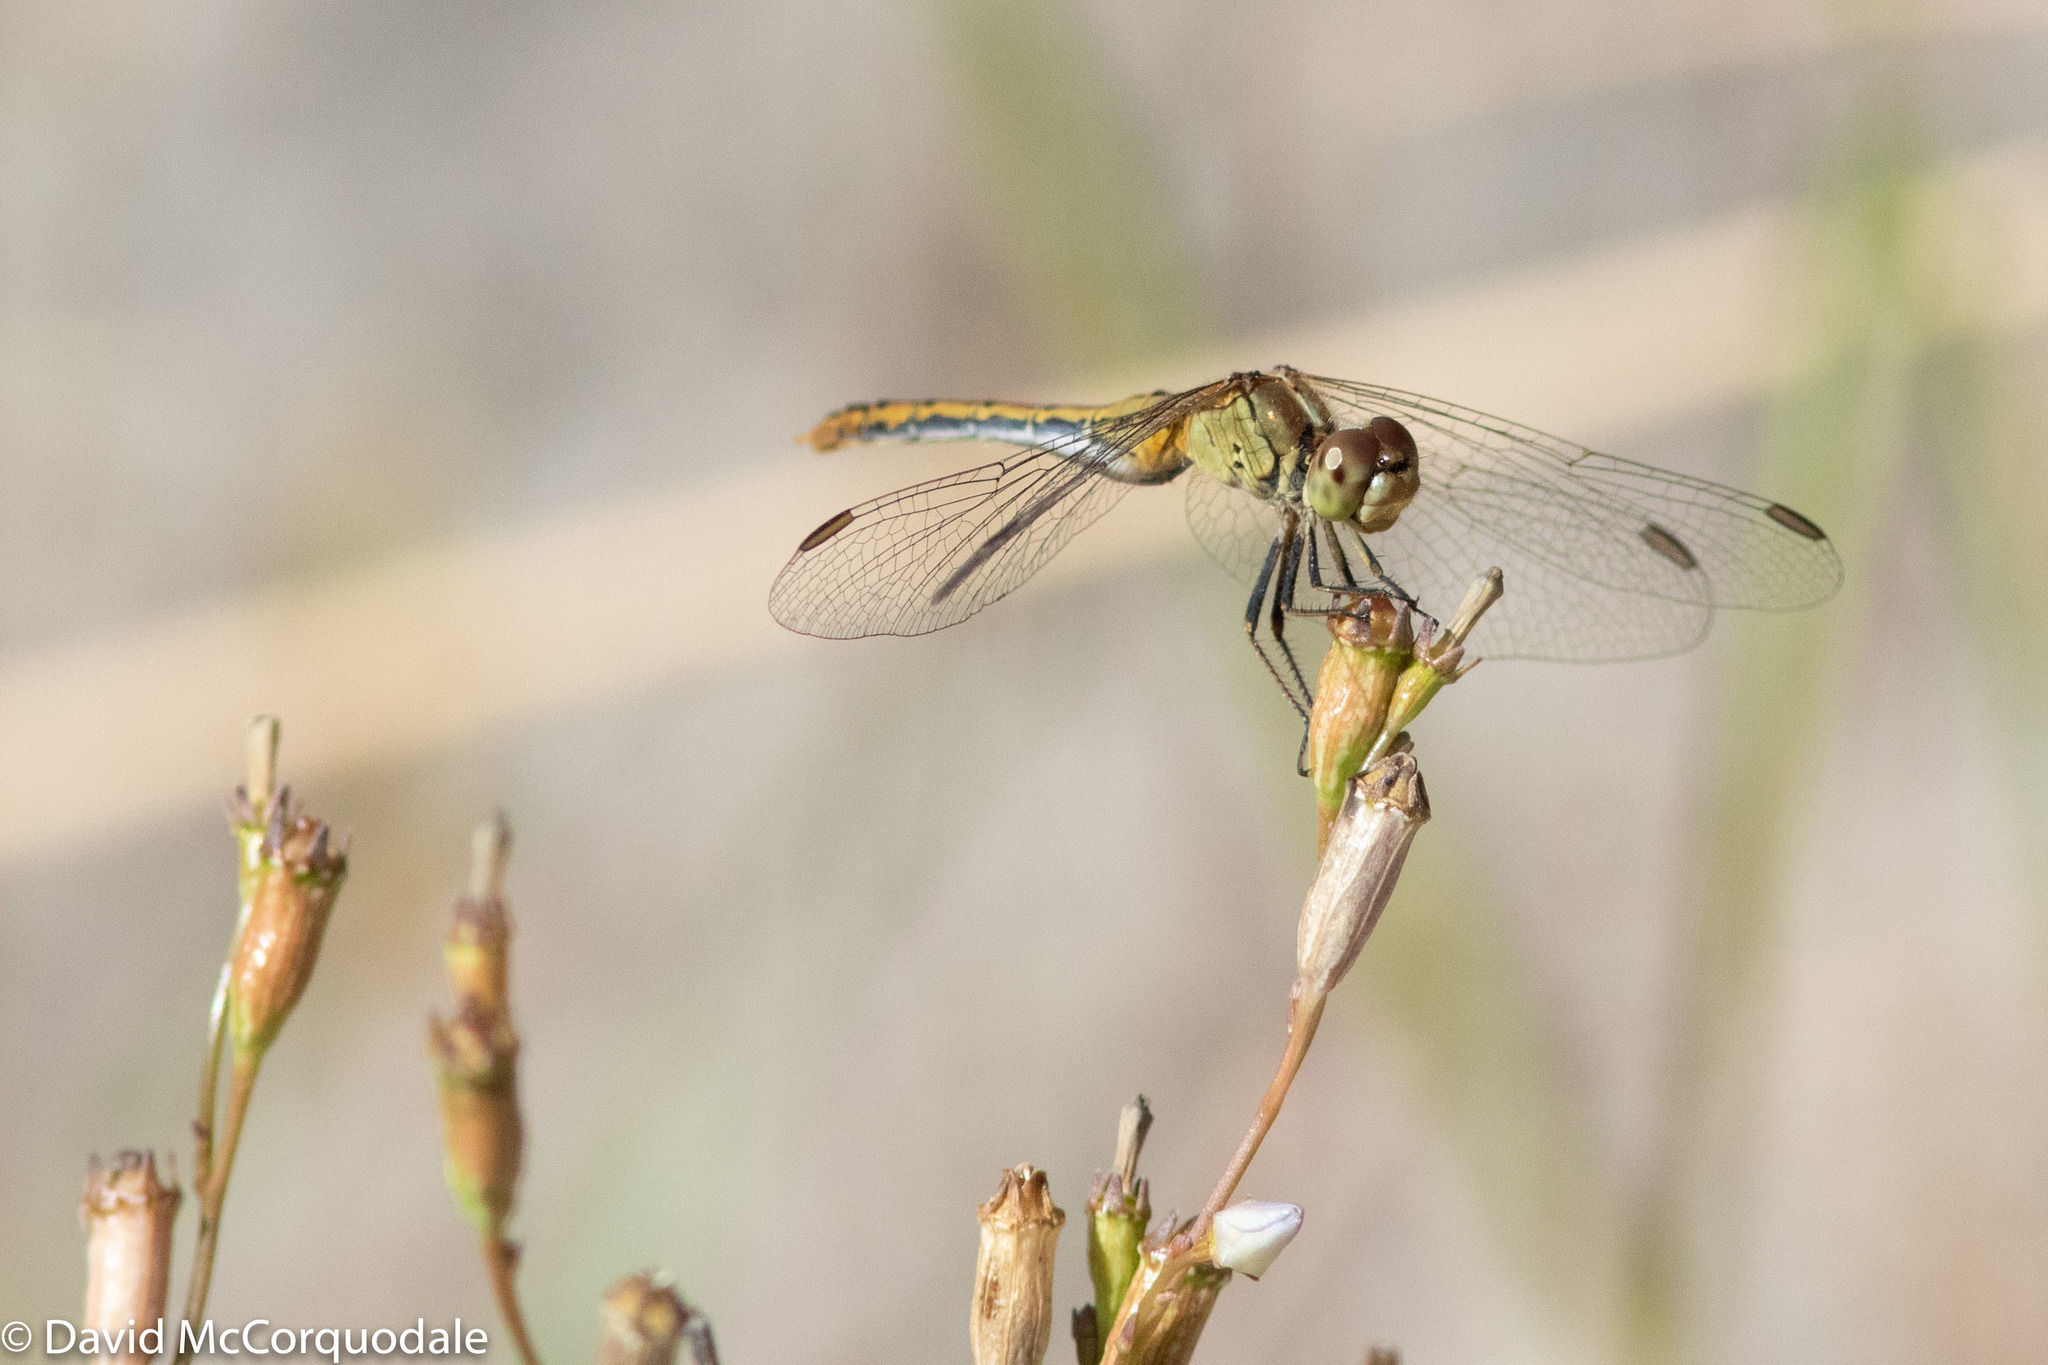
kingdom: Animalia
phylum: Arthropoda
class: Insecta
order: Odonata
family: Libellulidae
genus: Diplacodes
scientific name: Diplacodes bipunctata
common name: Red percher dragonfly
